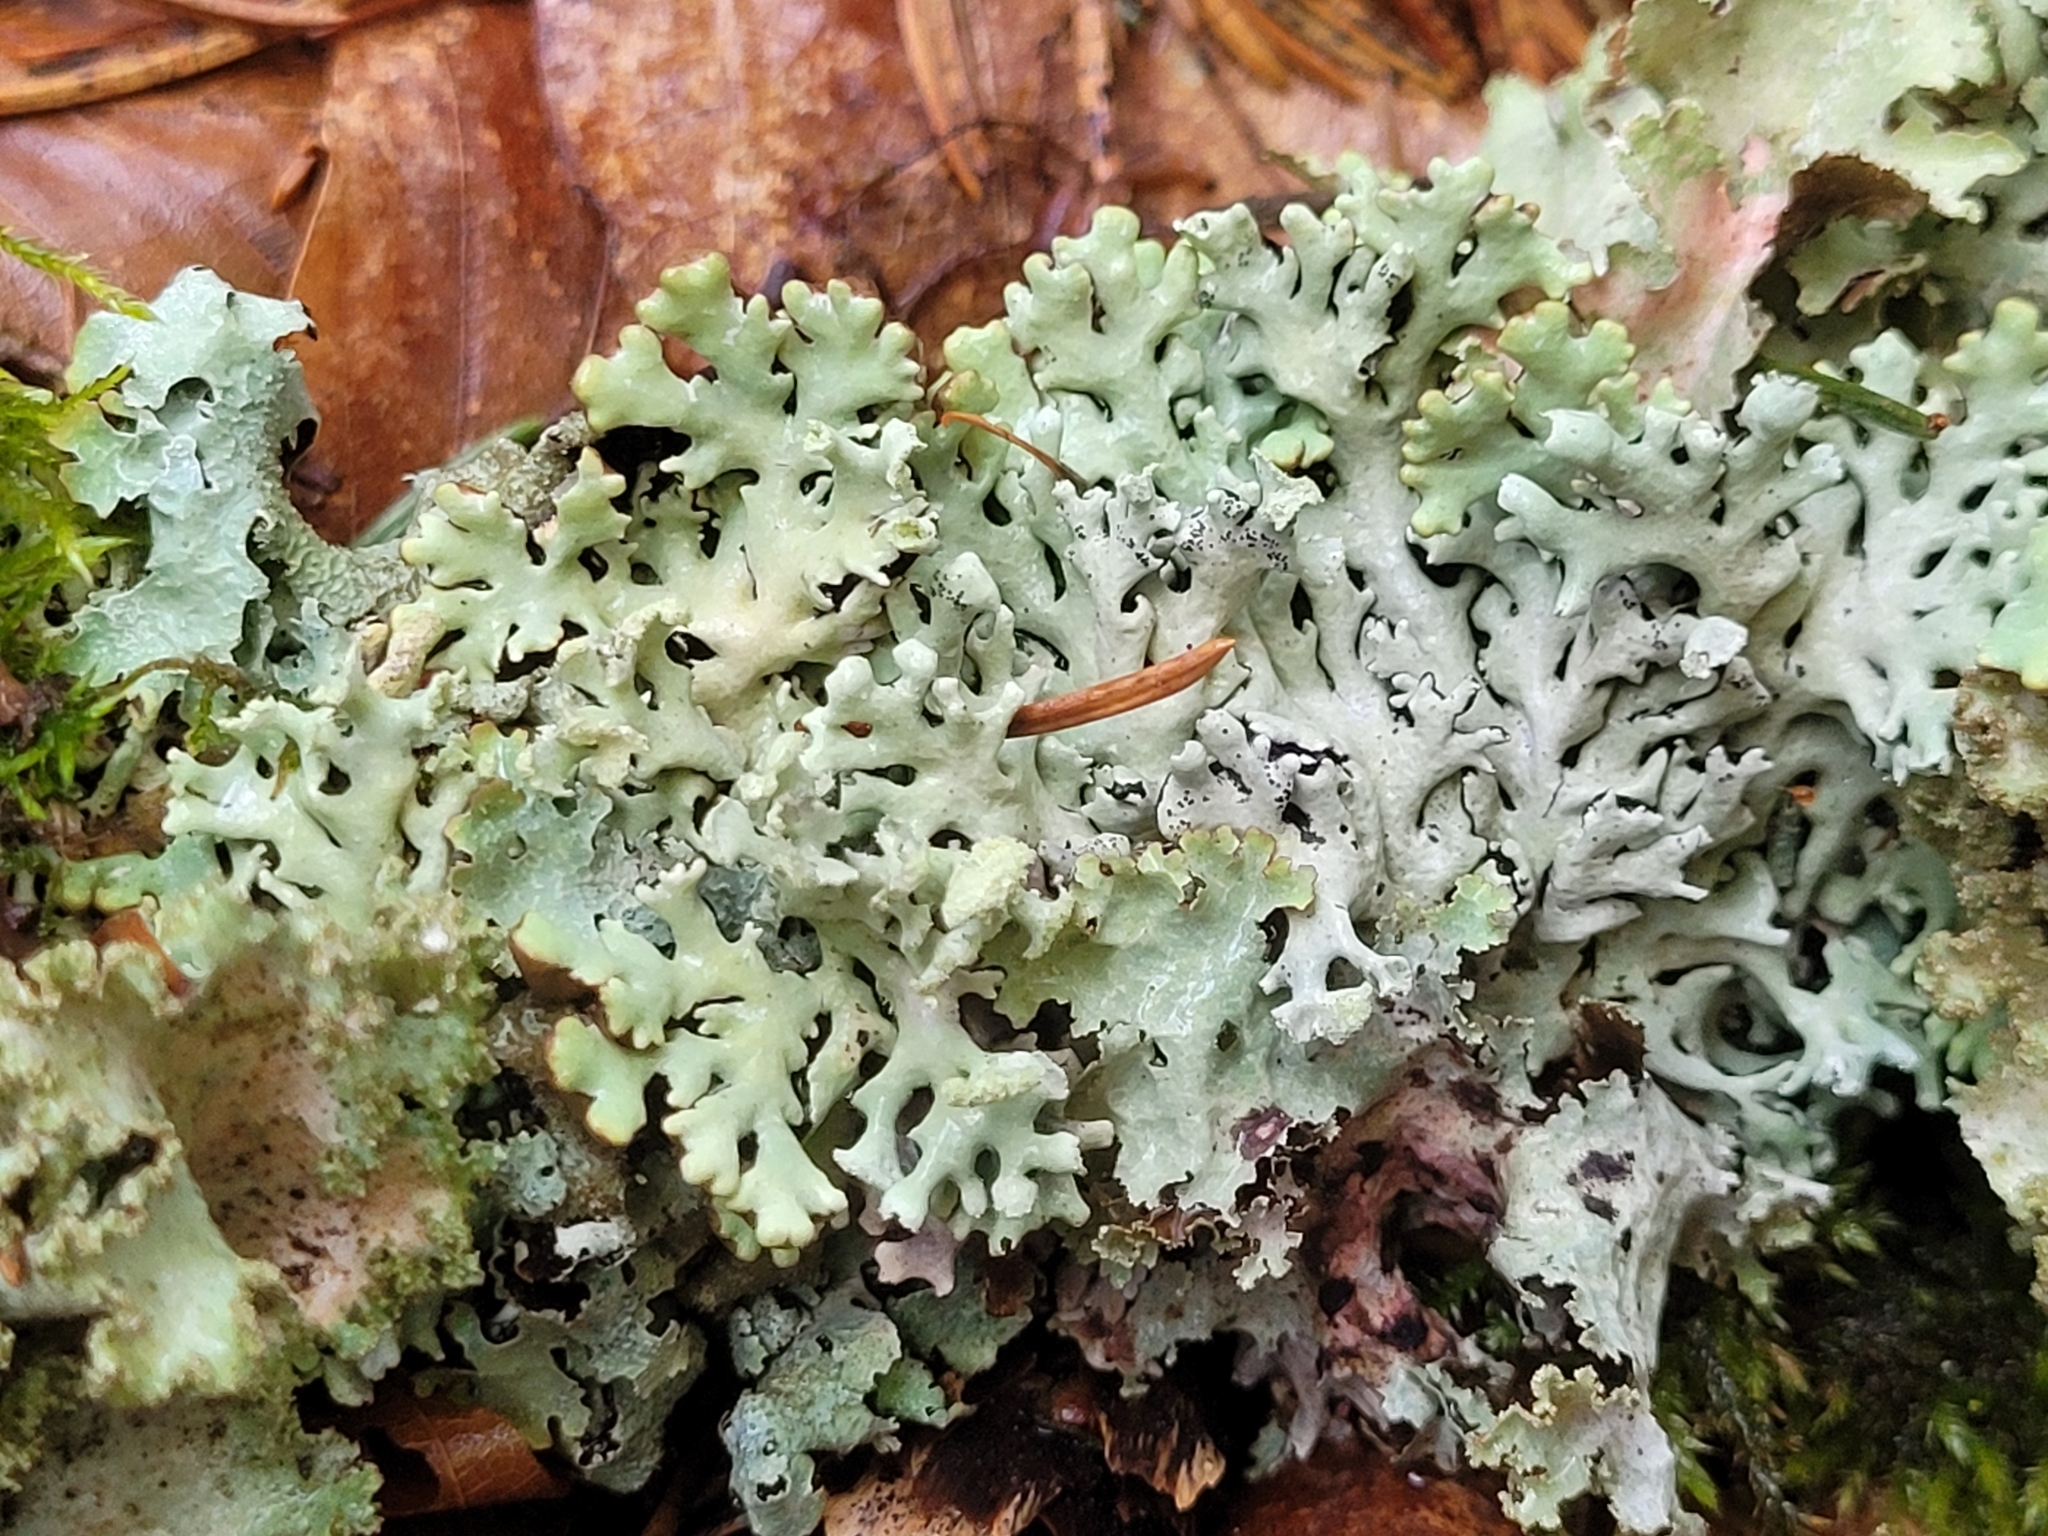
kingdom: Fungi
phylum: Ascomycota
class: Lecanoromycetes
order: Lecanorales
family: Parmeliaceae
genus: Hypogymnia
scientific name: Hypogymnia physodes
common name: Dark crottle
